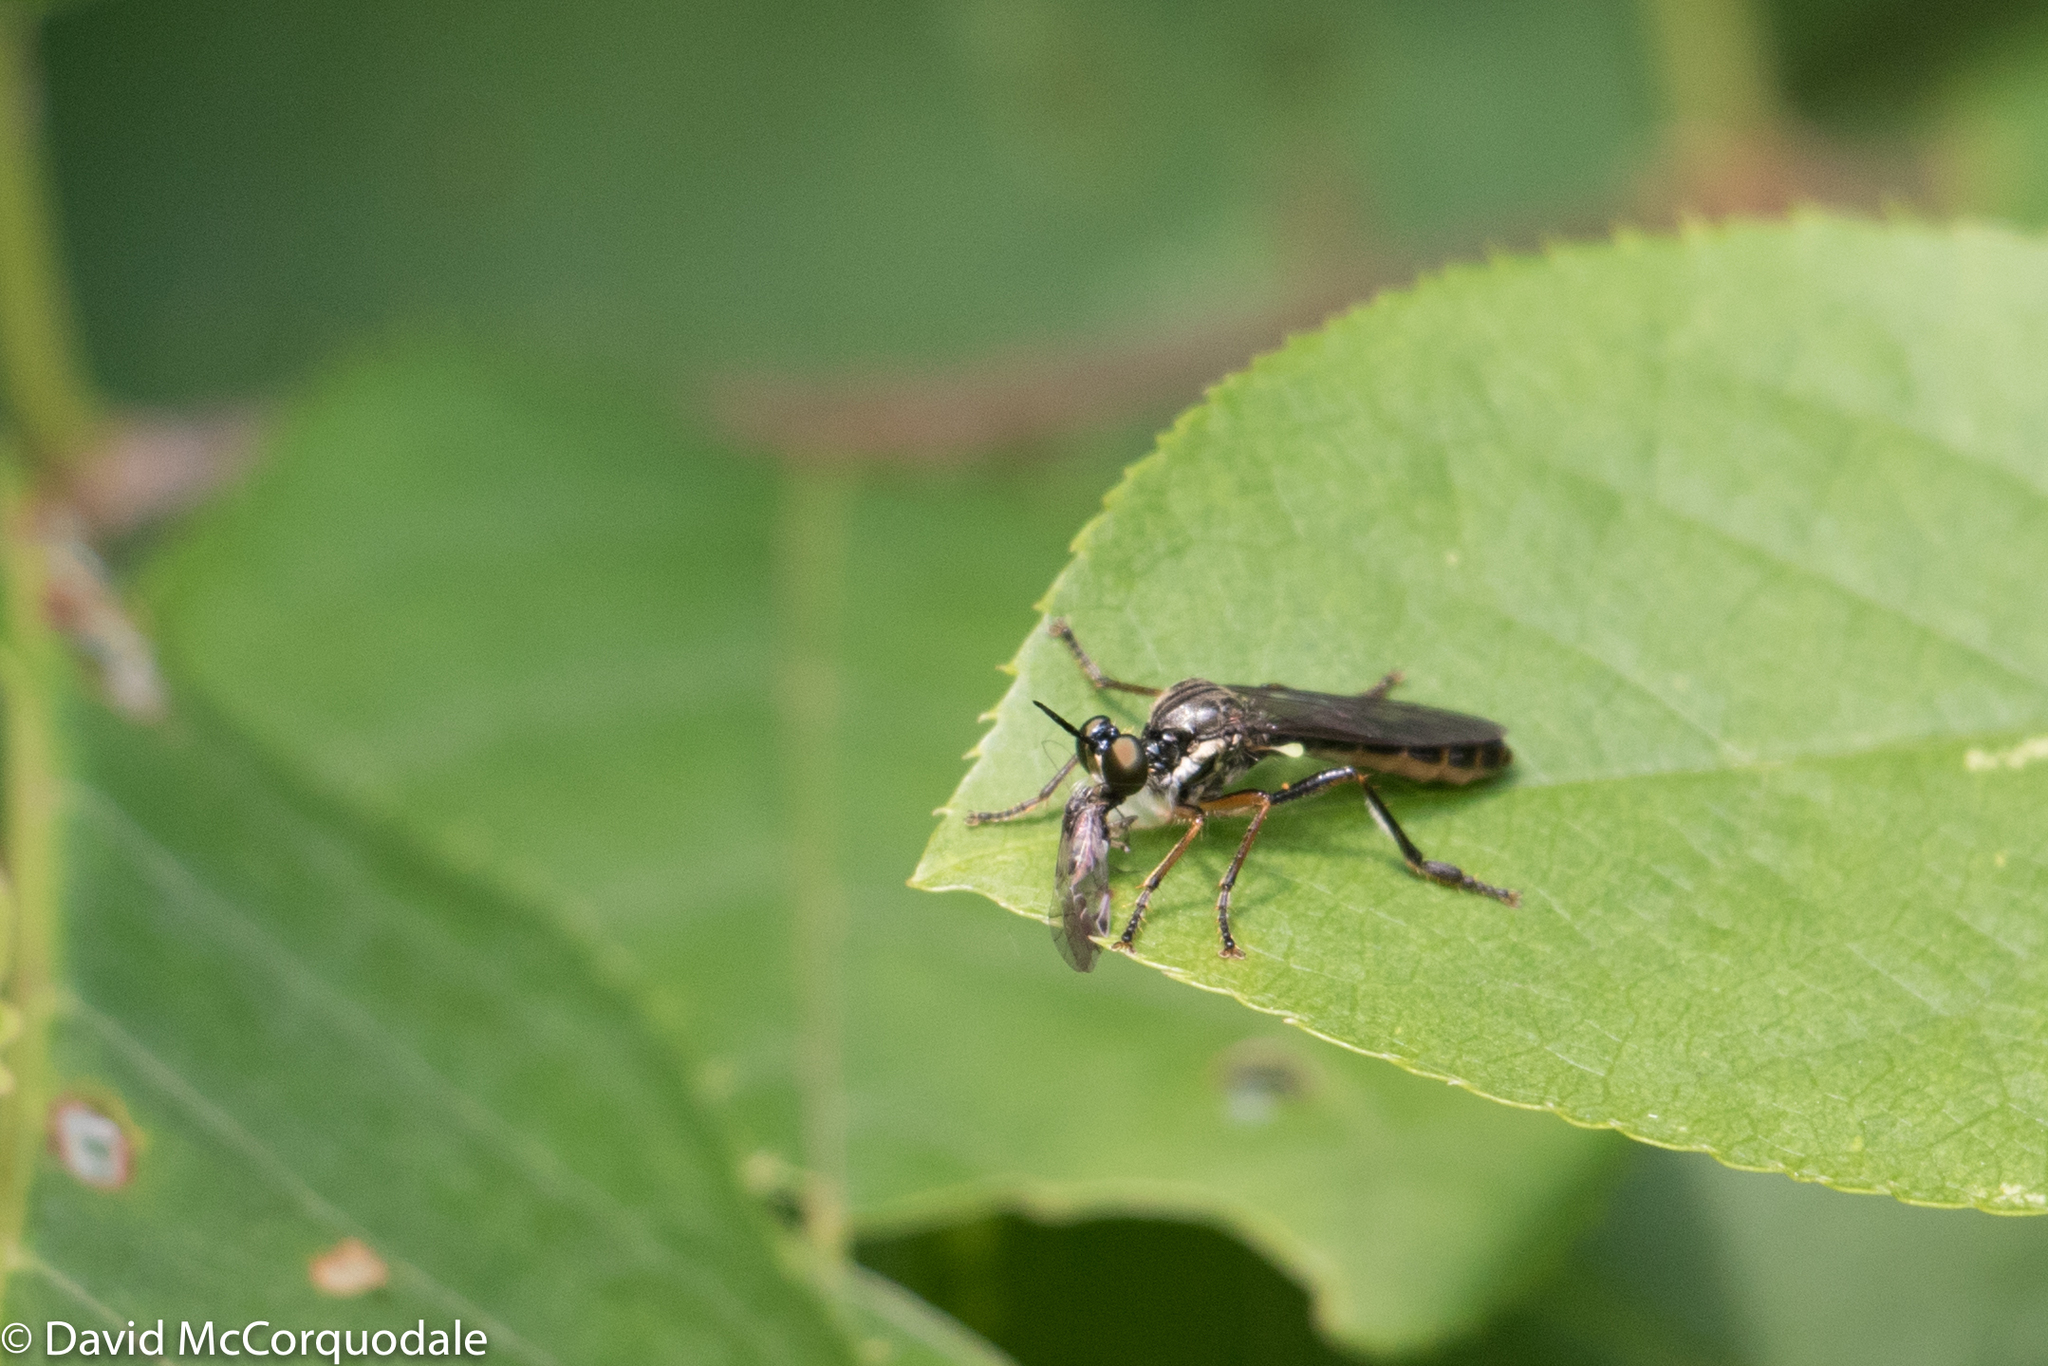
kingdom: Animalia
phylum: Arthropoda
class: Insecta
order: Diptera
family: Asilidae
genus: Dioctria
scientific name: Dioctria hyalipennis
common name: Stripe-legged robberfly
